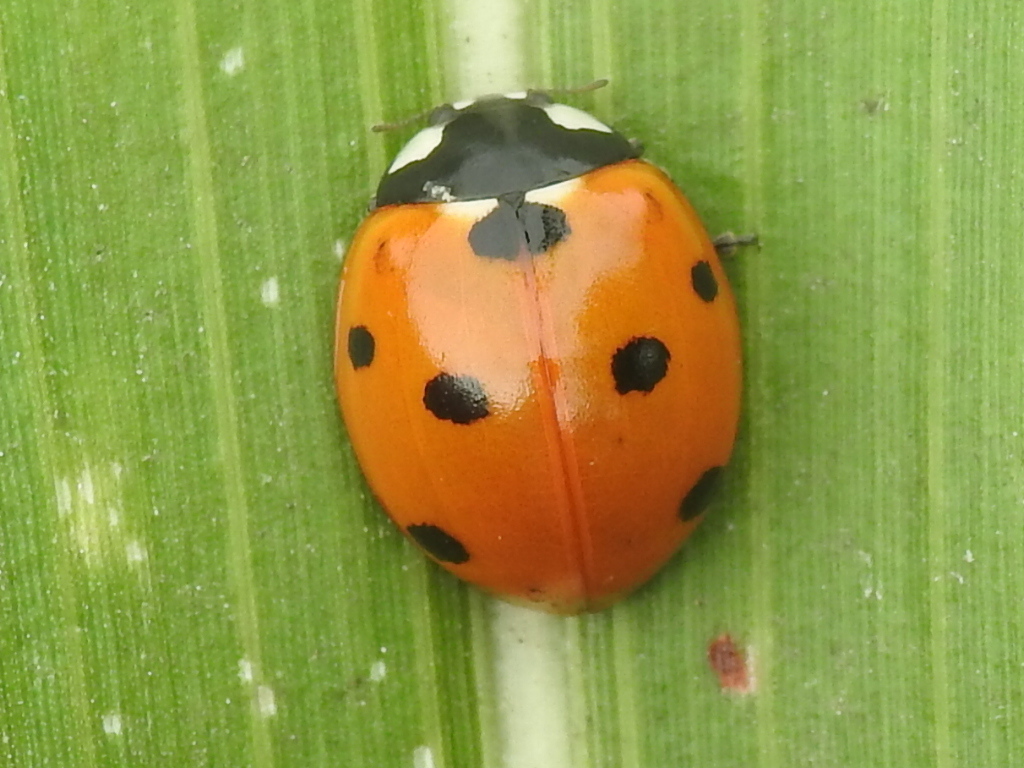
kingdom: Animalia
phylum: Arthropoda
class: Insecta
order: Coleoptera
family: Coccinellidae
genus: Coccinella
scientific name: Coccinella septempunctata
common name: Sevenspotted lady beetle
